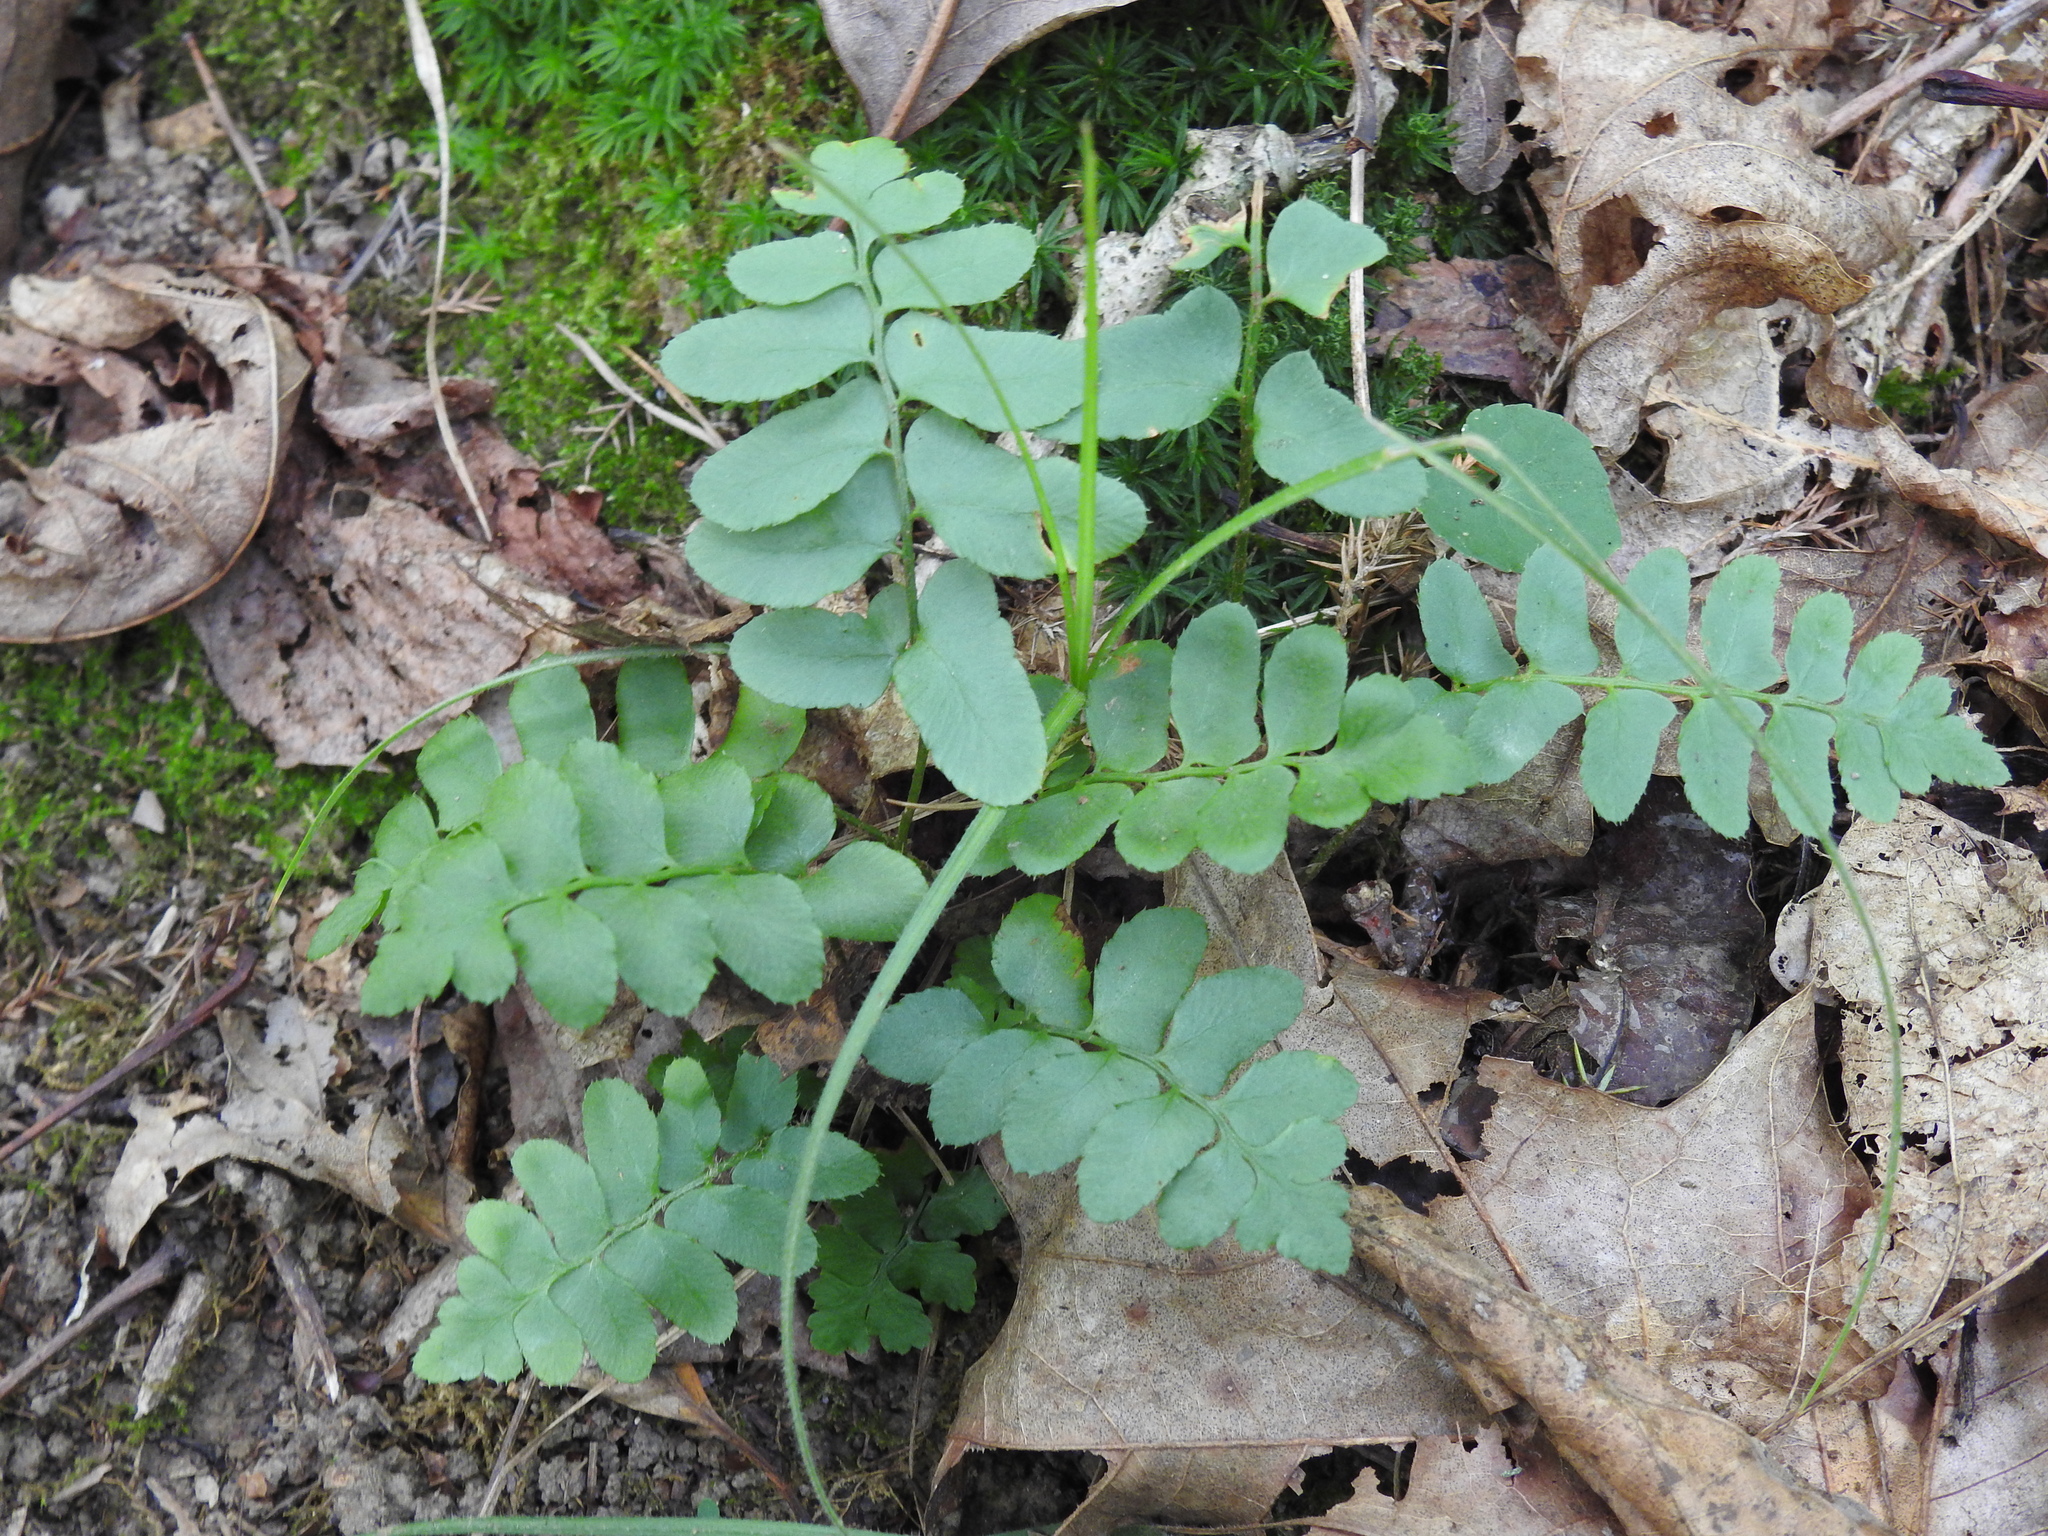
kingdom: Plantae
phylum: Tracheophyta
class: Polypodiopsida
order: Polypodiales
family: Dryopteridaceae
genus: Polystichum
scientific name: Polystichum acrostichoides
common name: Christmas fern
